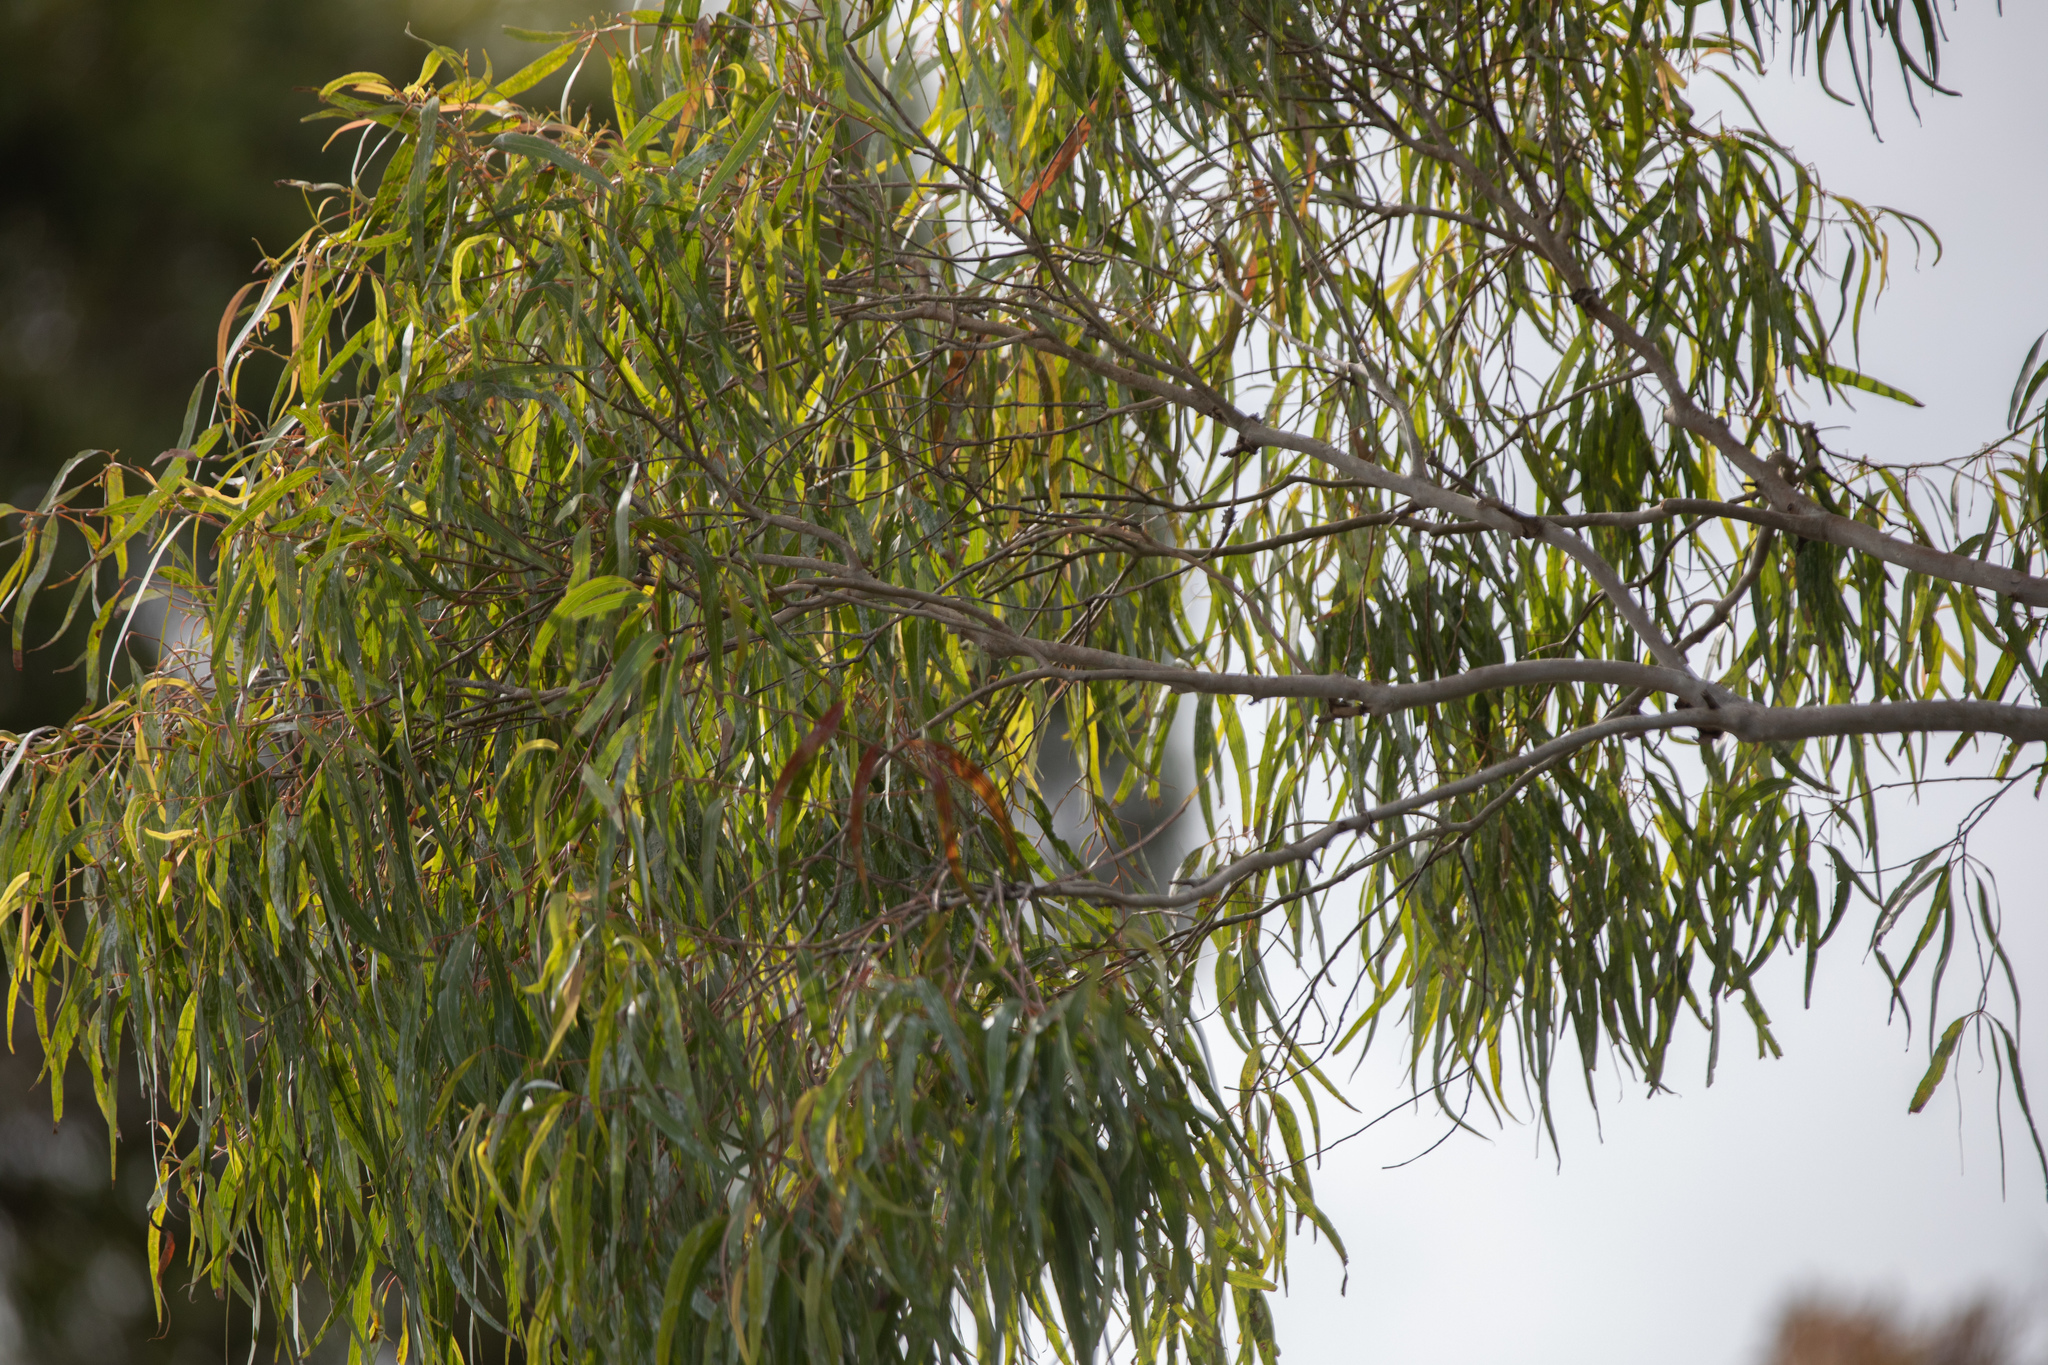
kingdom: Plantae
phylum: Tracheophyta
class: Magnoliopsida
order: Myrtales
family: Myrtaceae
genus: Corymbia
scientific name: Corymbia citriodora
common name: Lemonscented gum
